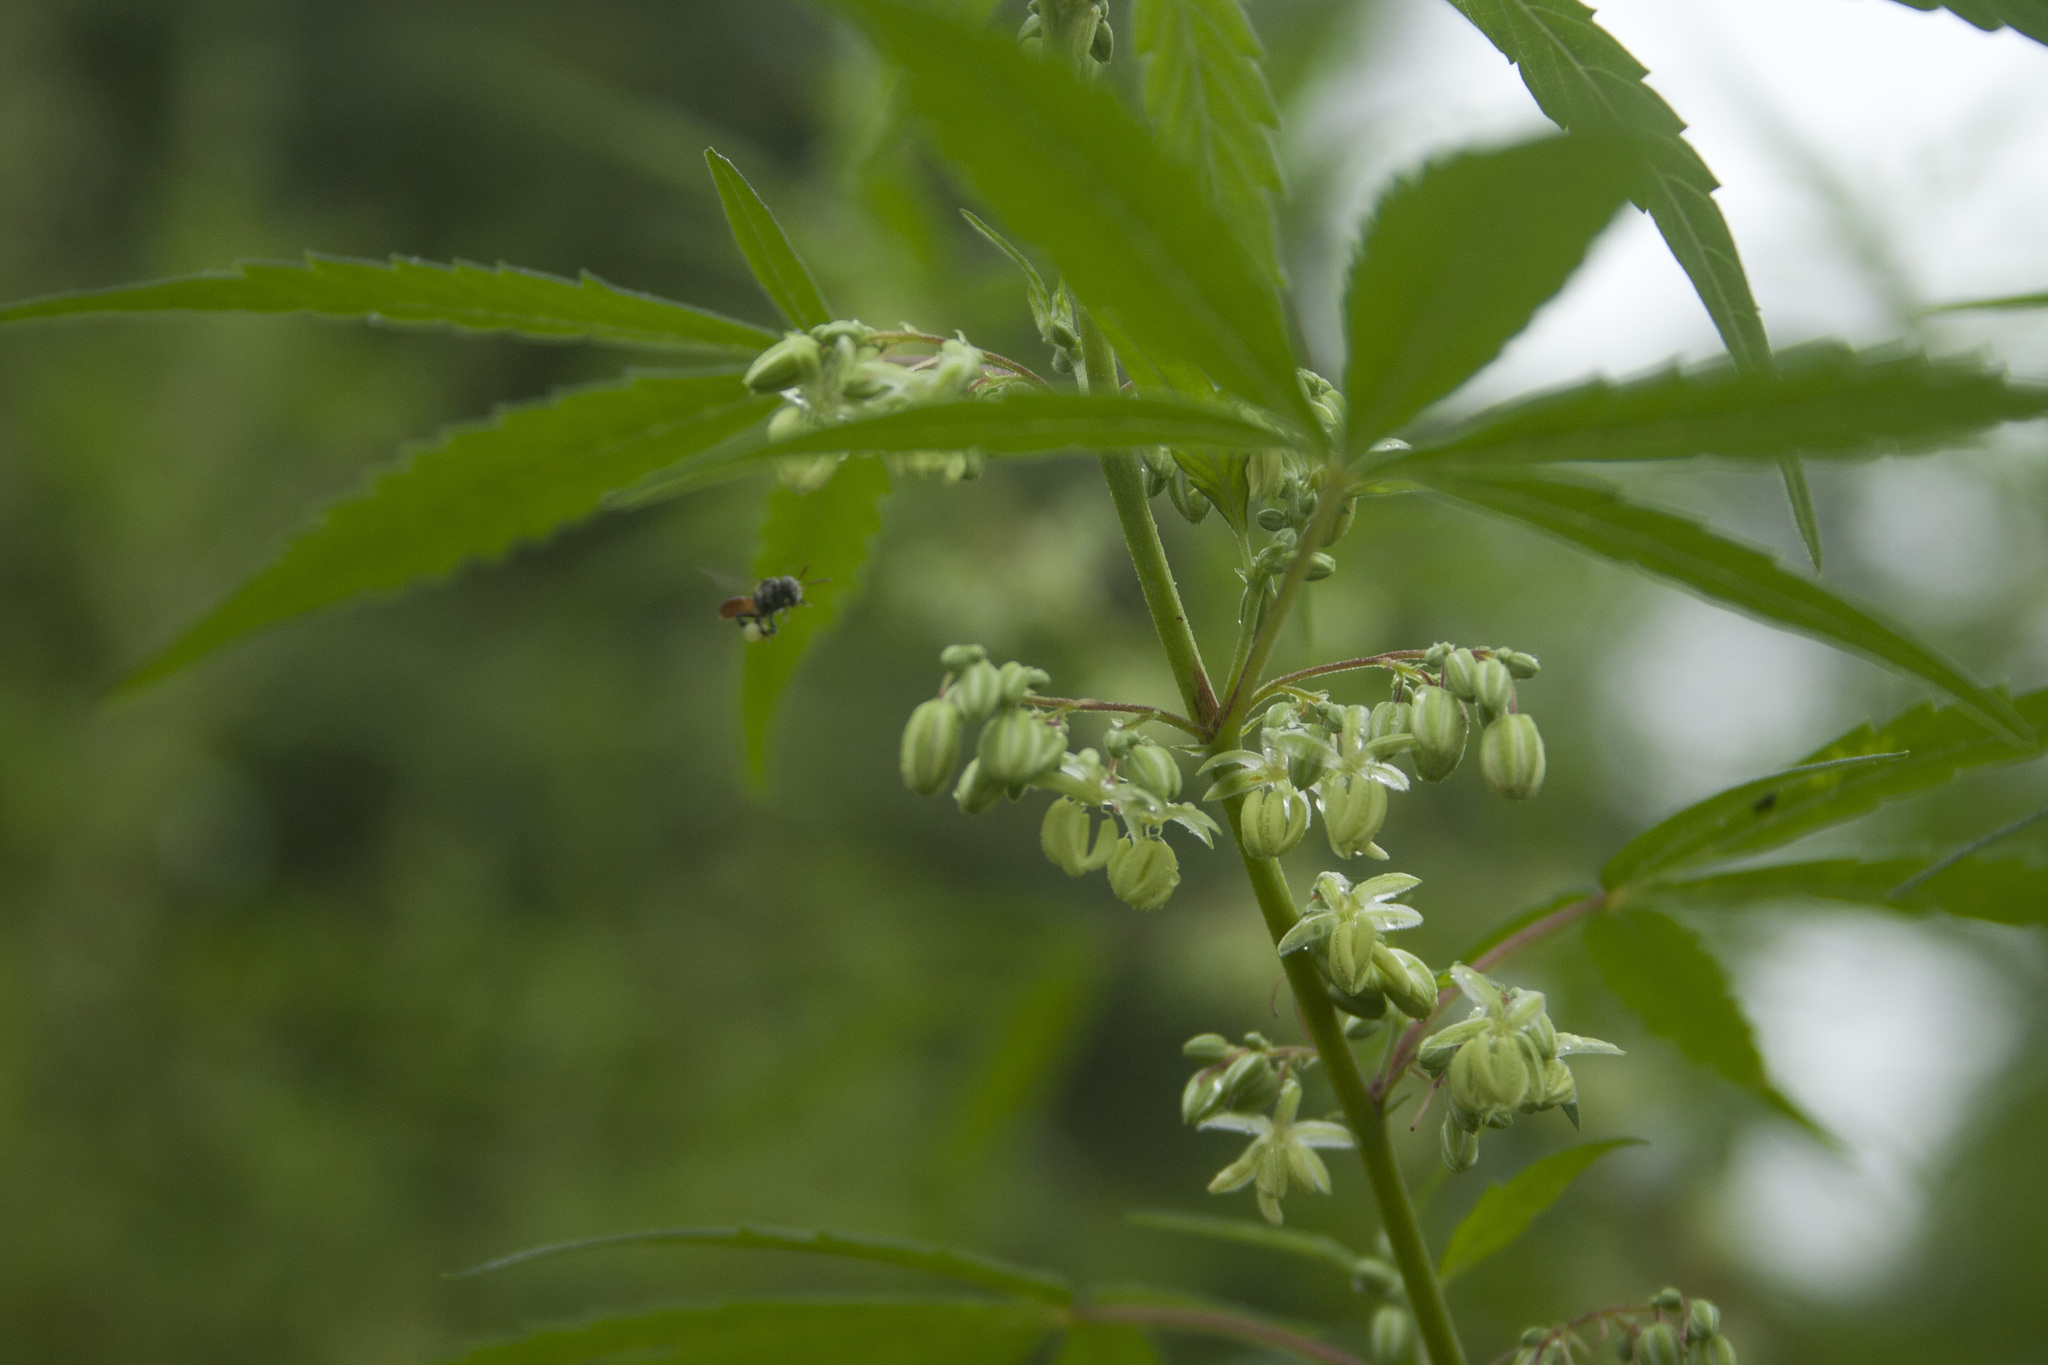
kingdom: Plantae
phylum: Tracheophyta
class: Magnoliopsida
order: Rosales
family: Cannabaceae
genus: Cannabis
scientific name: Cannabis sativa
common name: Hemp
